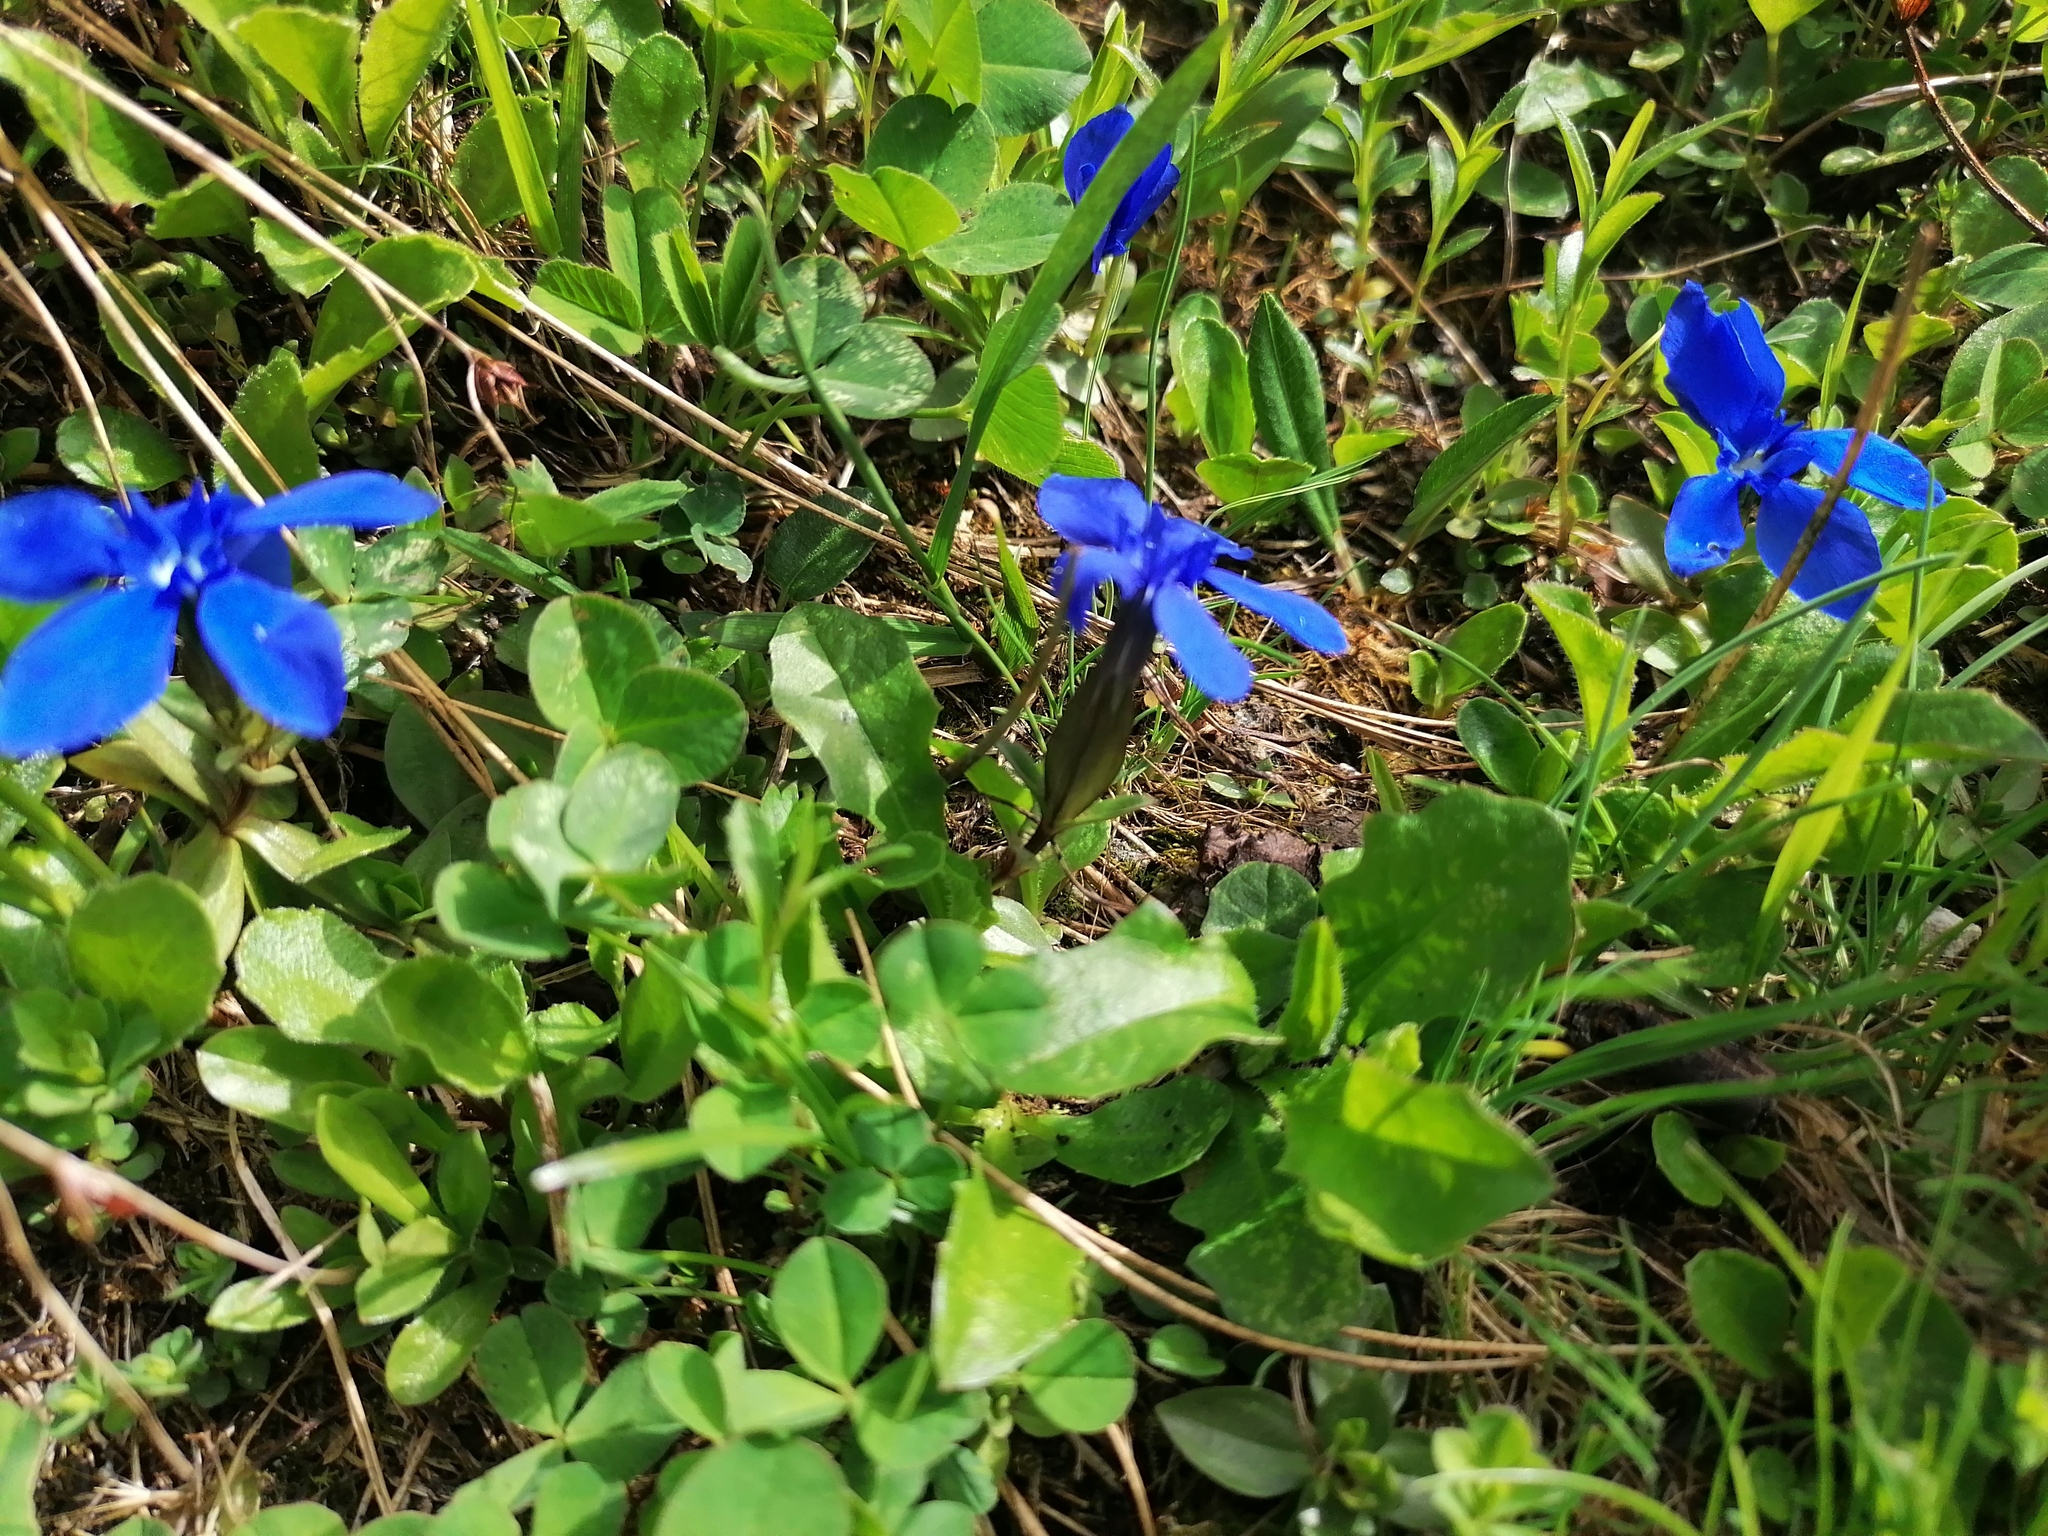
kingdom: Plantae
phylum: Tracheophyta
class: Magnoliopsida
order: Gentianales
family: Gentianaceae
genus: Gentiana
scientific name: Gentiana verna
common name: Spring gentian
